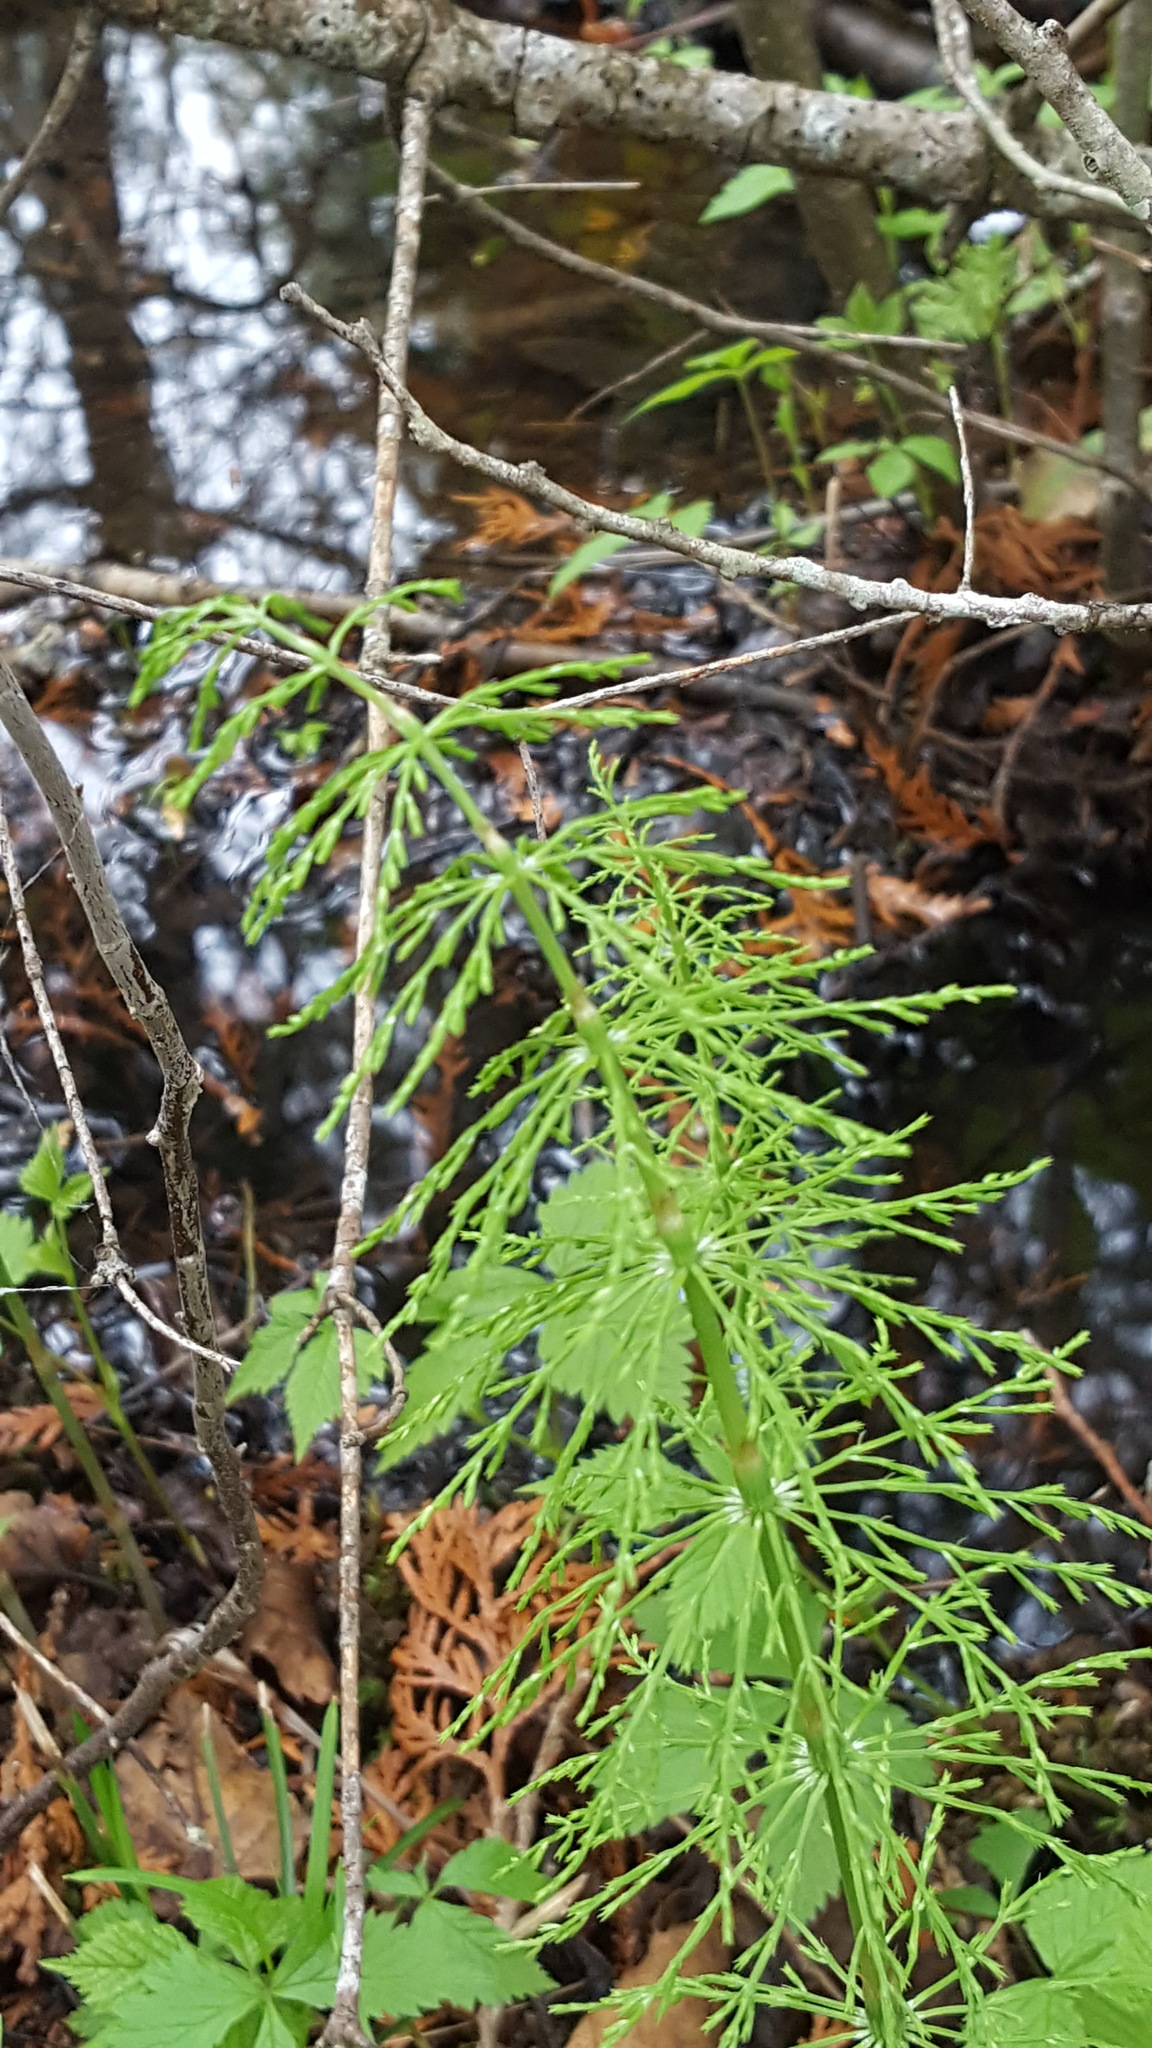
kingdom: Plantae
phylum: Tracheophyta
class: Polypodiopsida
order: Equisetales
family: Equisetaceae
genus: Equisetum
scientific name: Equisetum sylvaticum
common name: Wood horsetail
